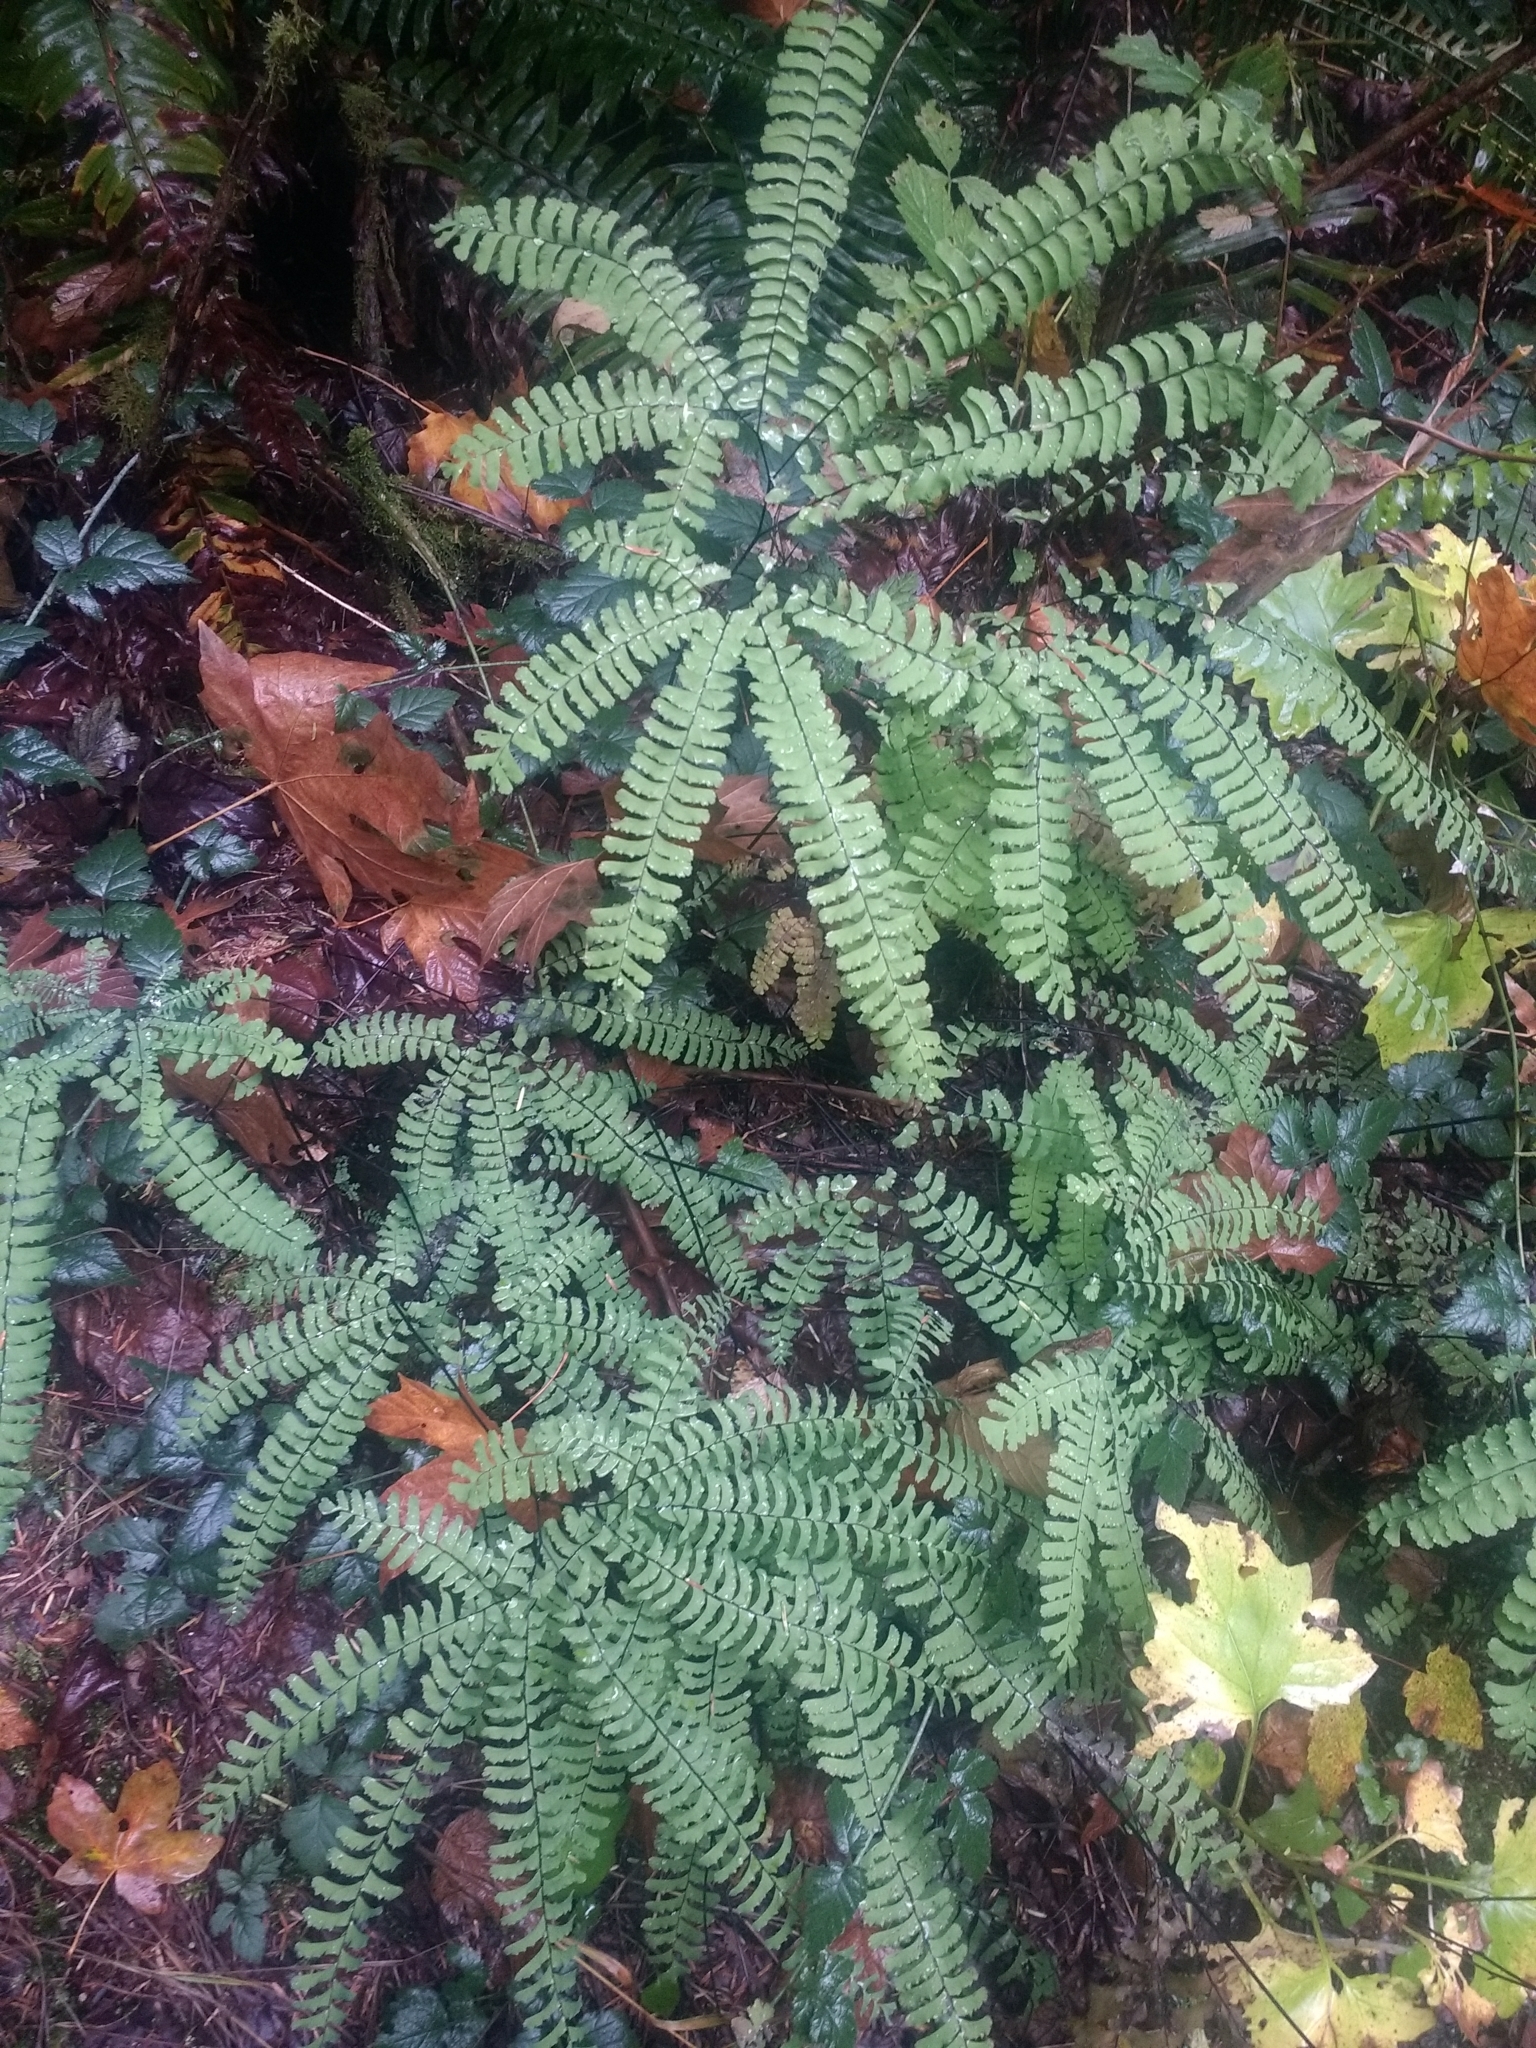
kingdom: Plantae
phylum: Tracheophyta
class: Polypodiopsida
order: Polypodiales
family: Pteridaceae
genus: Adiantum
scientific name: Adiantum aleuticum
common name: Aleutian maidenhair fern
